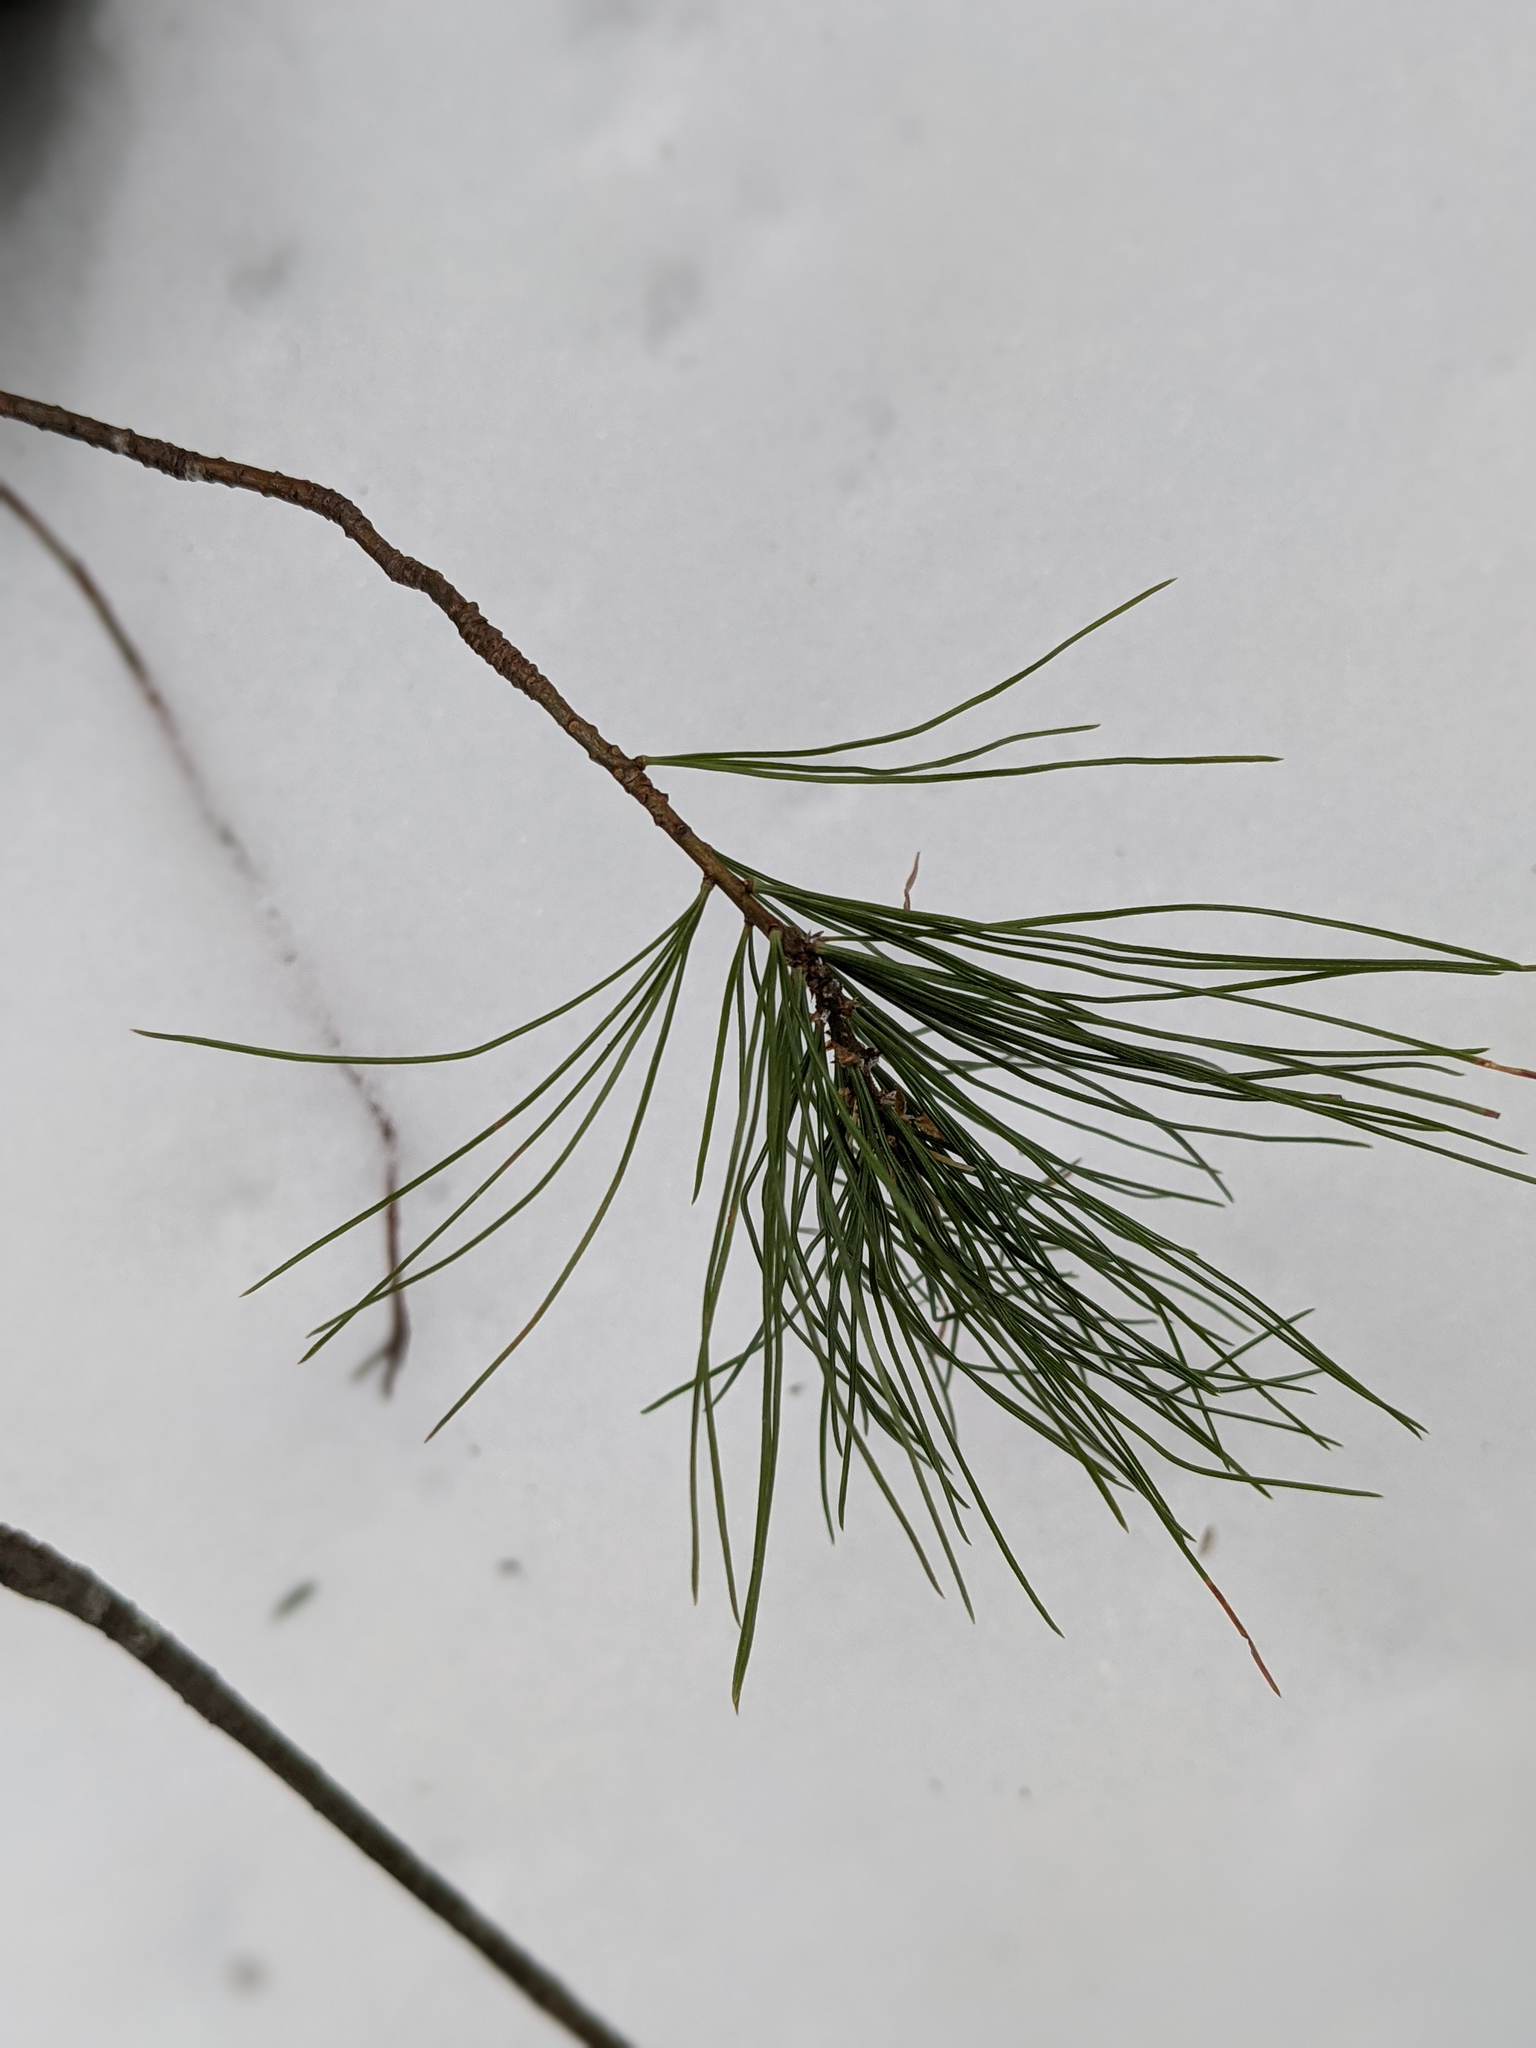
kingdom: Plantae
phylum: Tracheophyta
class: Pinopsida
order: Pinales
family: Pinaceae
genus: Pinus
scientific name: Pinus strobus
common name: Weymouth pine
